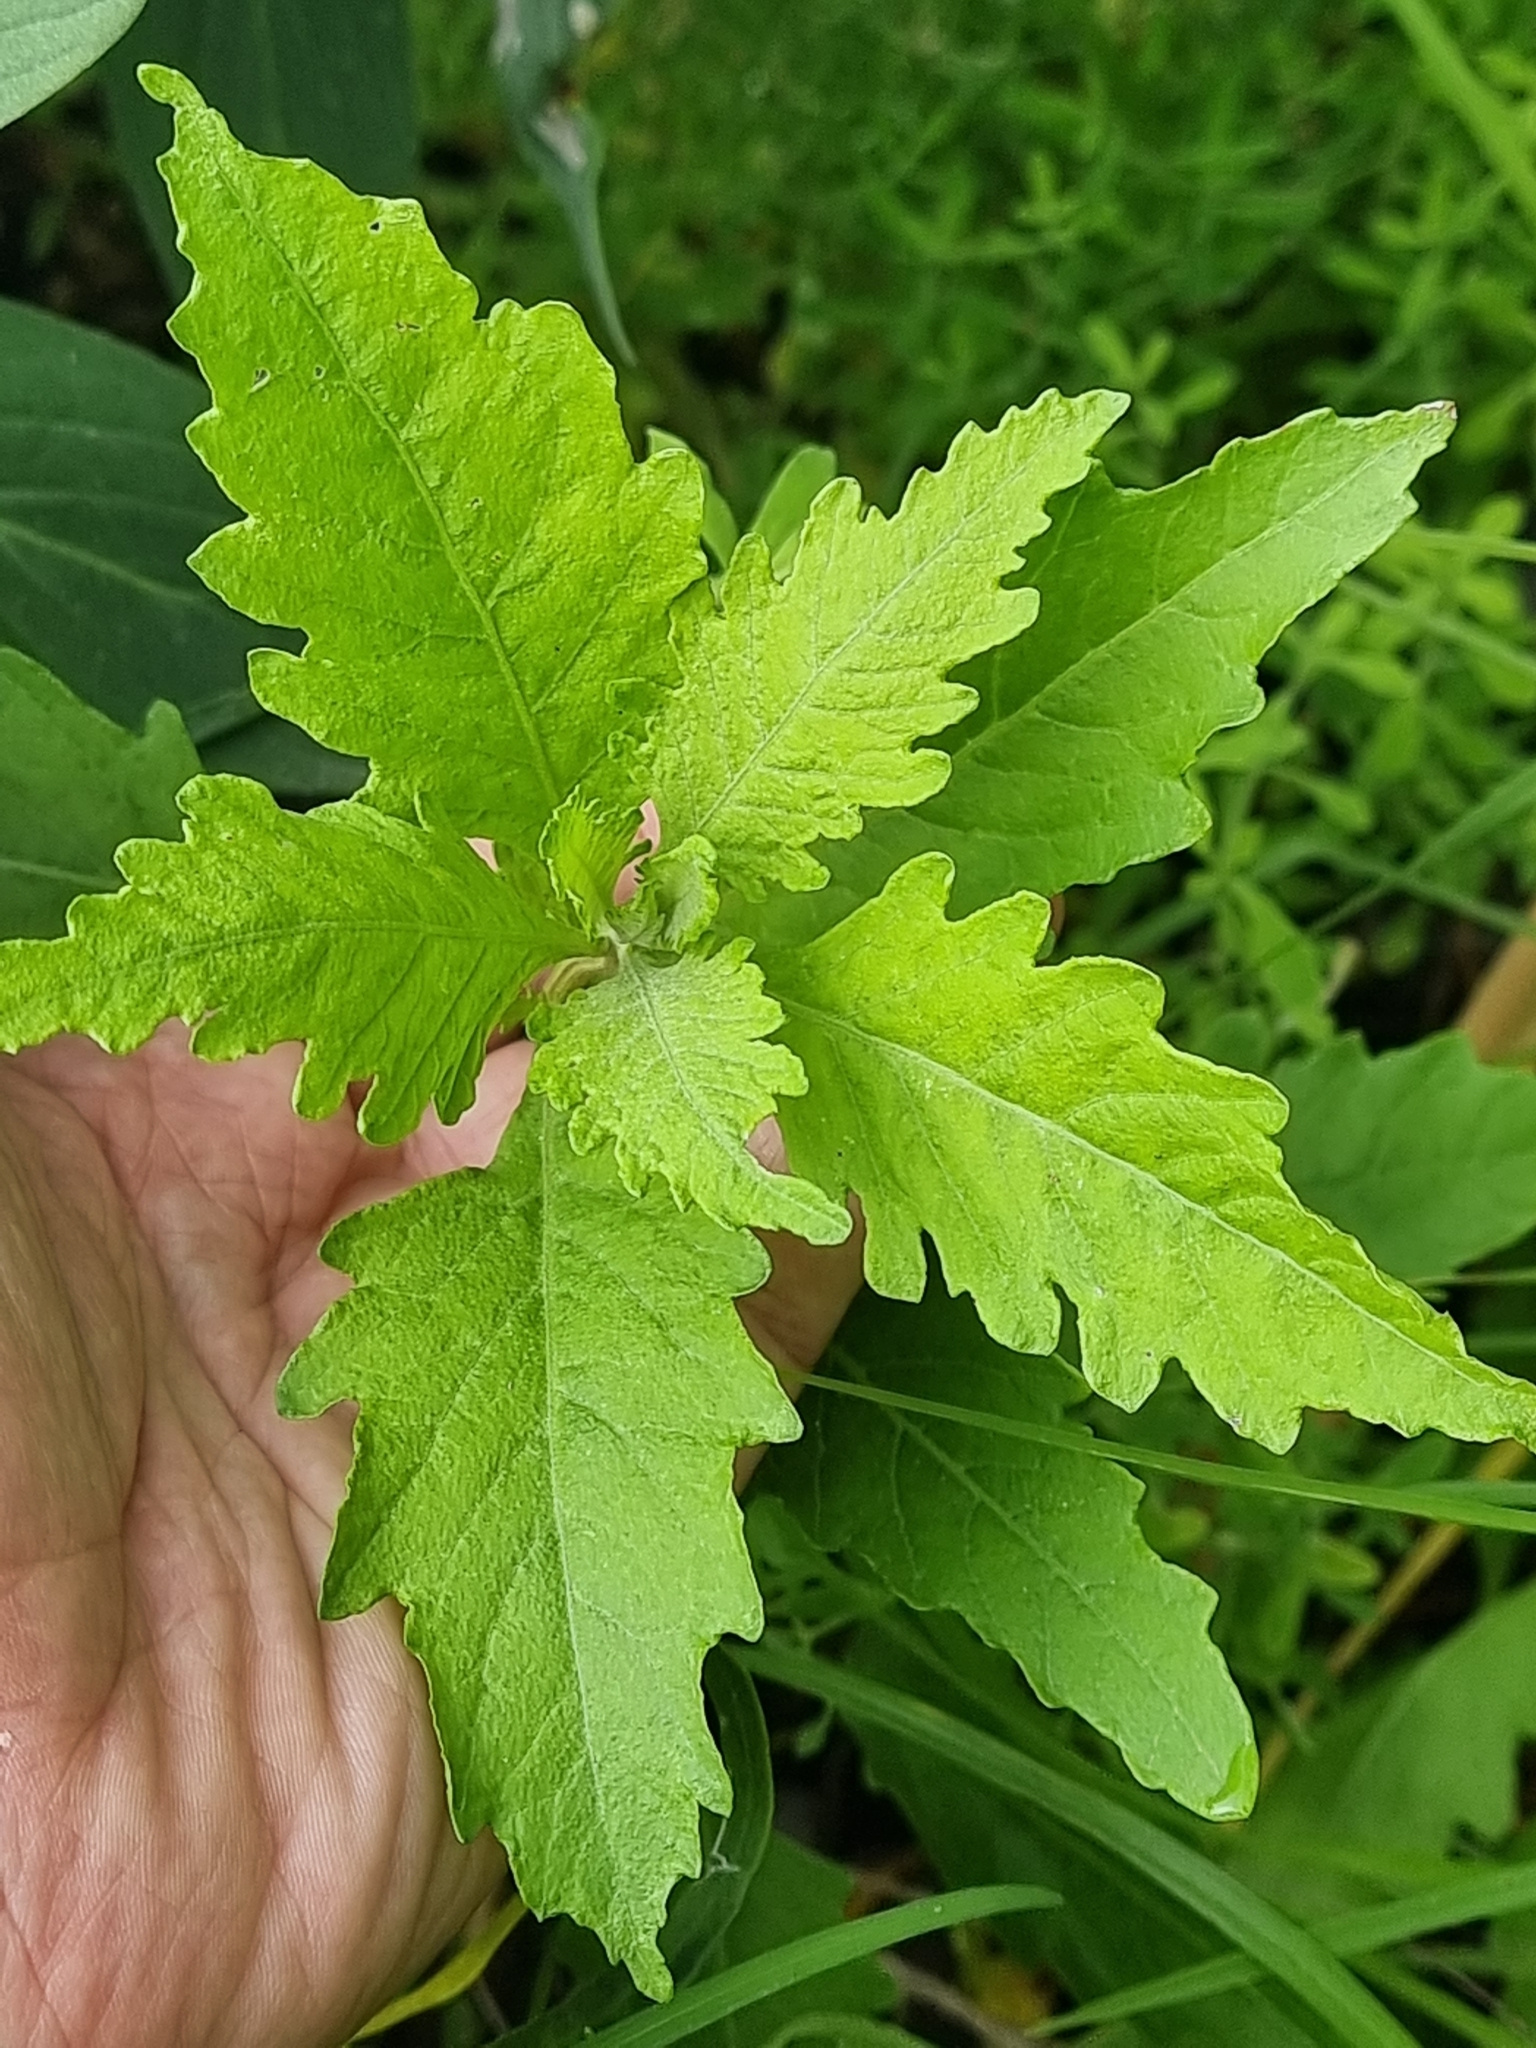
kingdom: Plantae
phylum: Tracheophyta
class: Magnoliopsida
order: Caryophyllales
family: Amaranthaceae
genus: Dysphania
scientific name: Dysphania ambrosioides
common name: Wormseed
